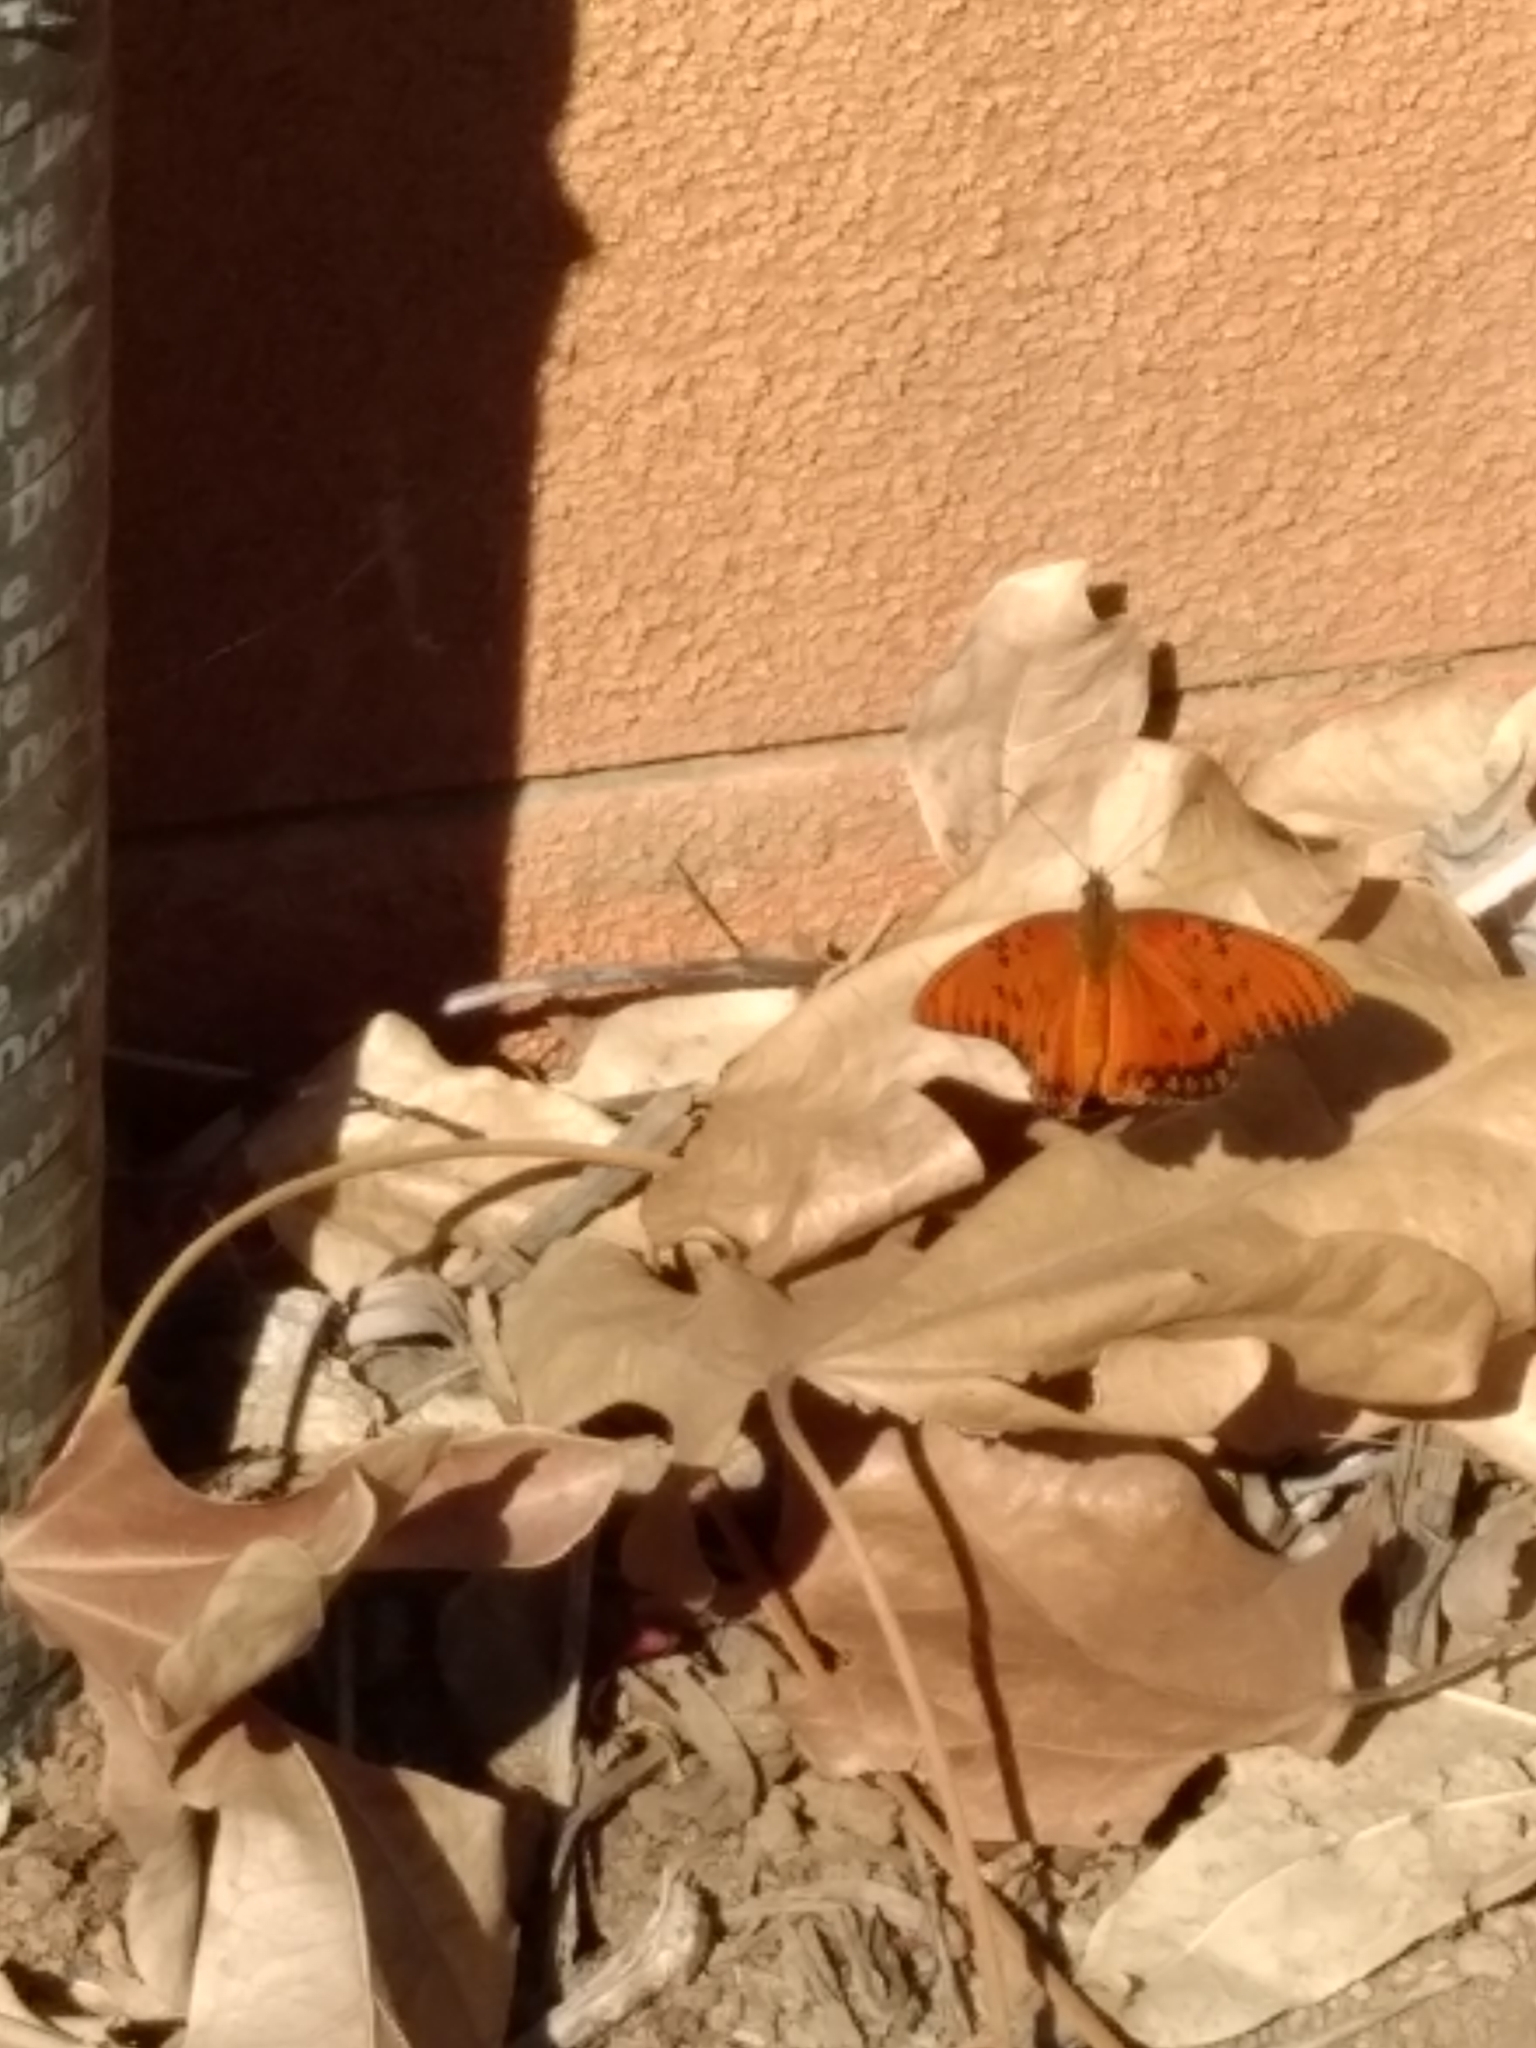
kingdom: Animalia
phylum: Arthropoda
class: Insecta
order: Lepidoptera
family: Nymphalidae
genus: Dione
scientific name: Dione vanillae
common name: Gulf fritillary
